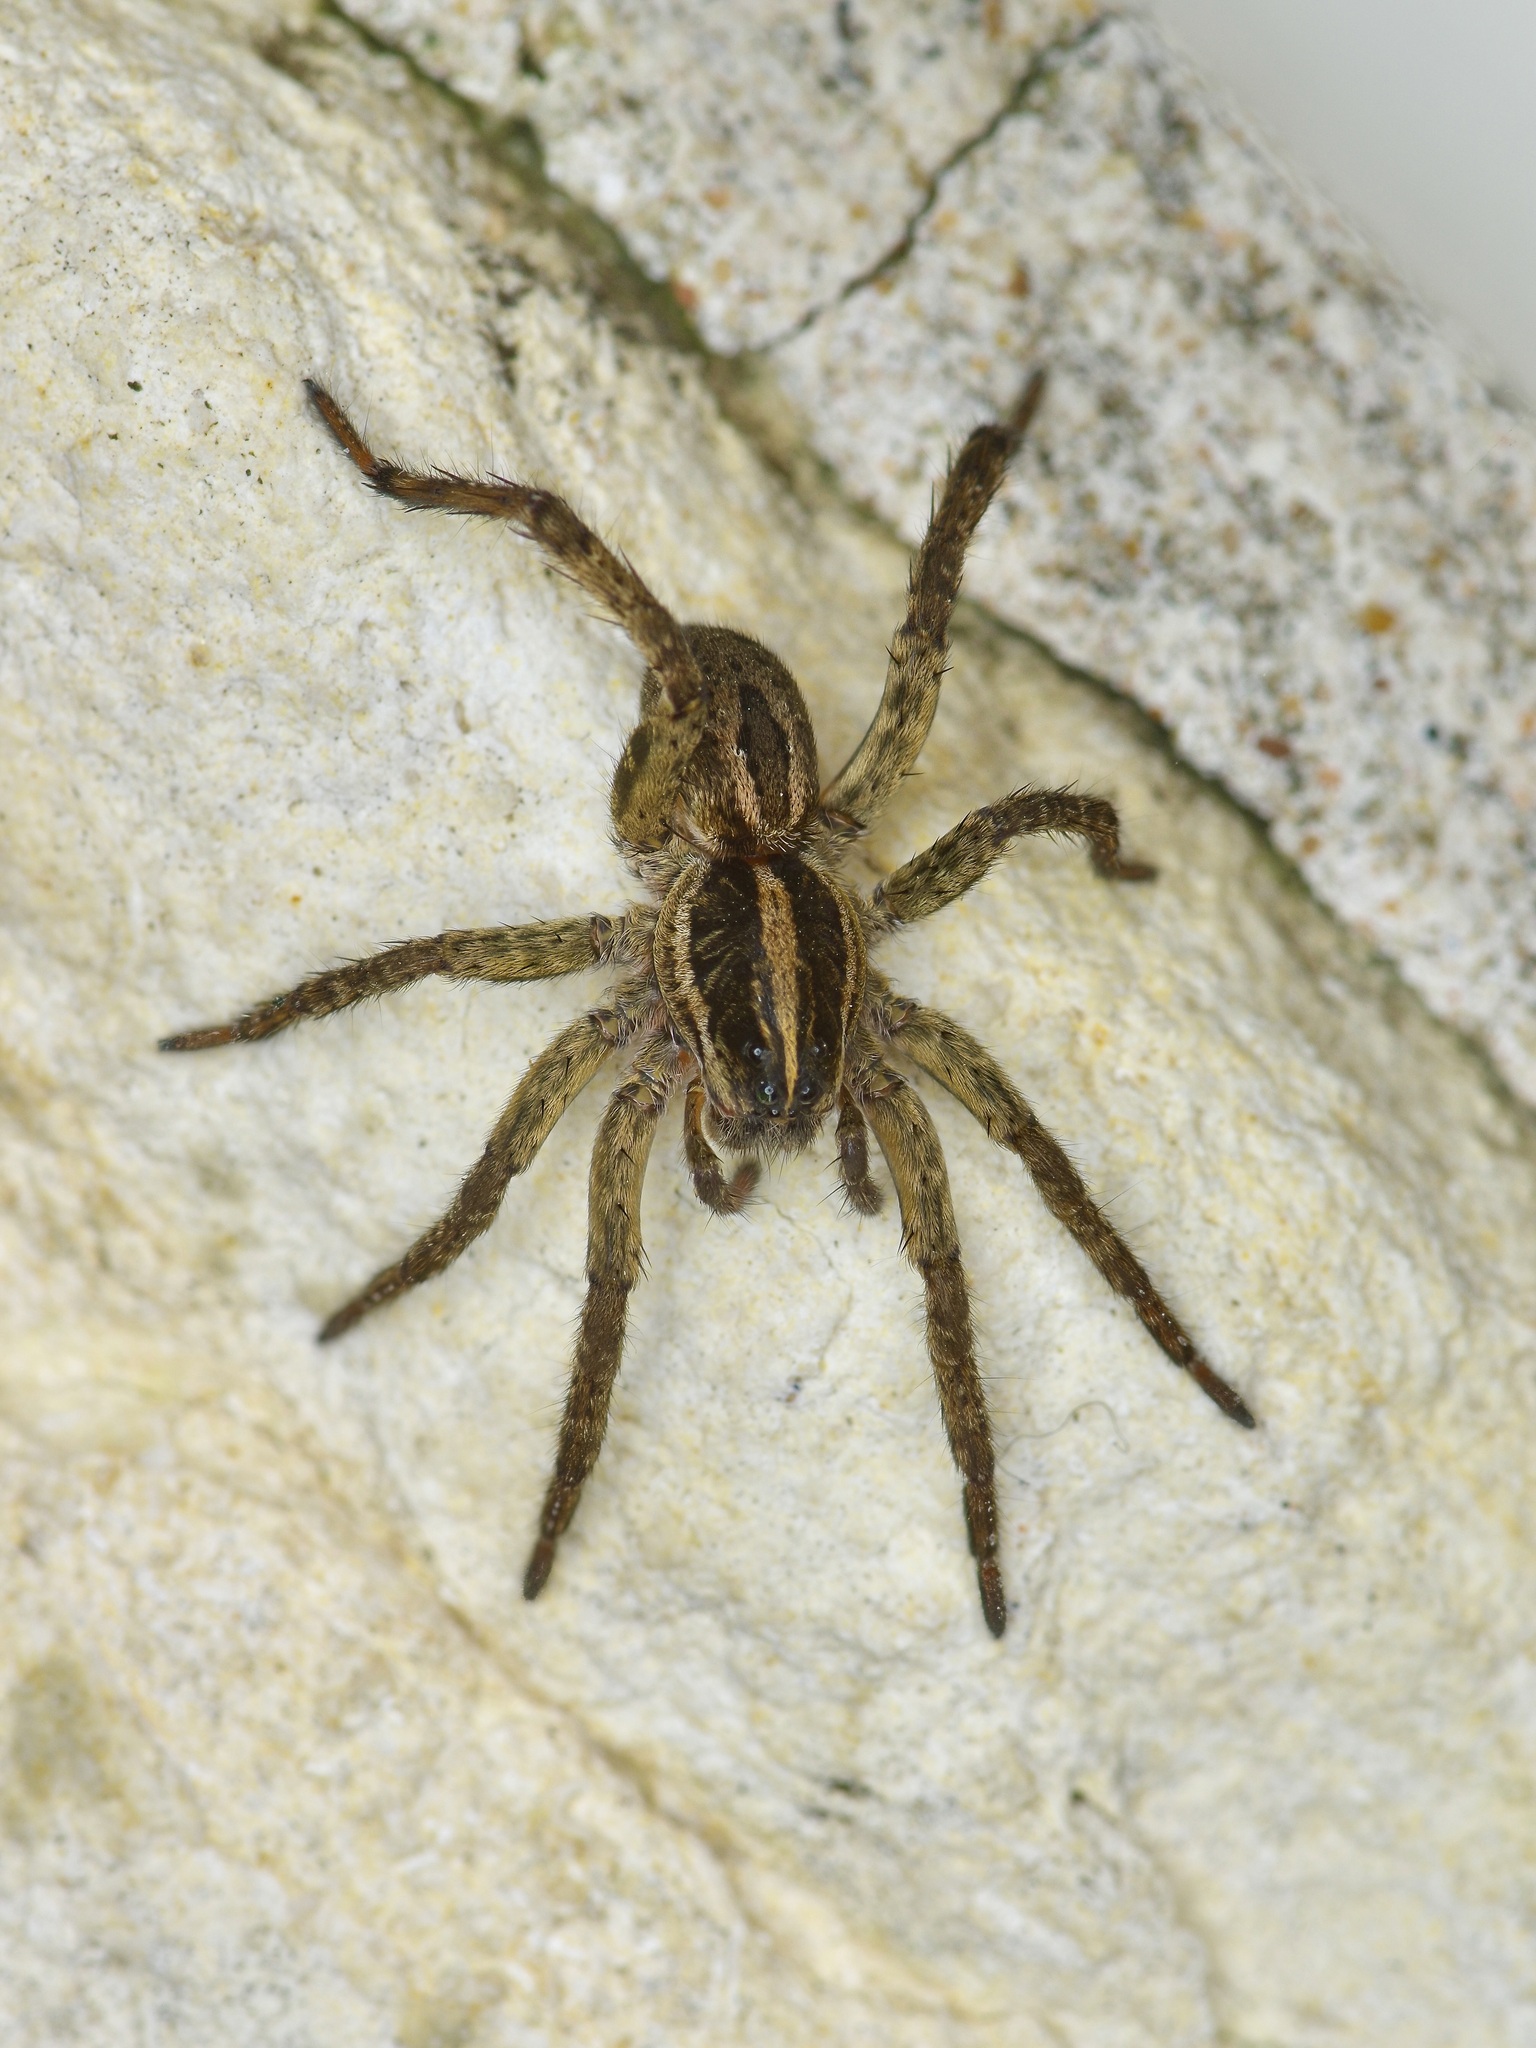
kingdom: Animalia
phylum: Arthropoda
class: Arachnida
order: Araneae
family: Lycosidae
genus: Tigrosa
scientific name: Tigrosa annexa
